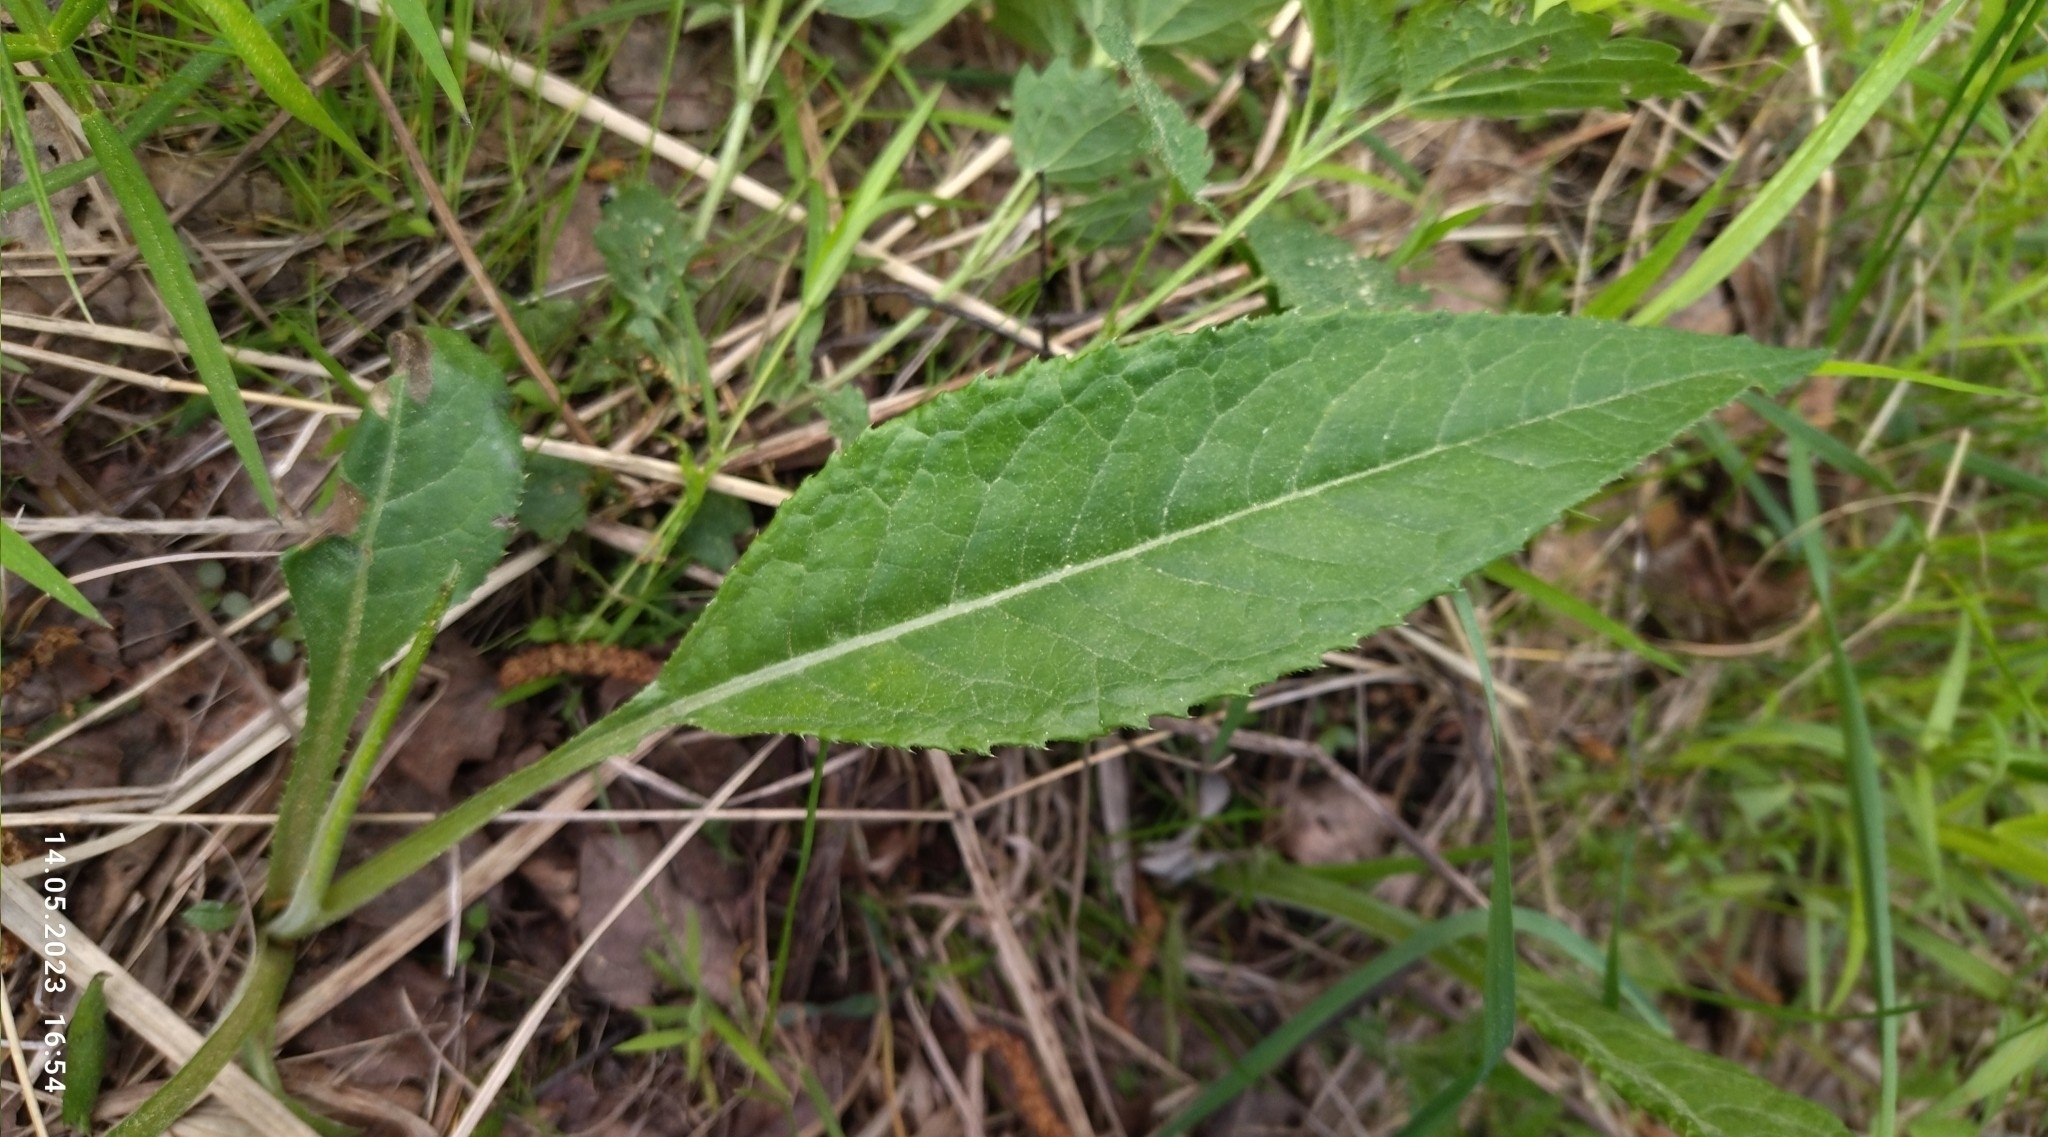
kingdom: Plantae
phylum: Tracheophyta
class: Magnoliopsida
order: Asterales
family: Asteraceae
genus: Cirsium
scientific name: Cirsium heterophyllum
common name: Melancholy thistle
